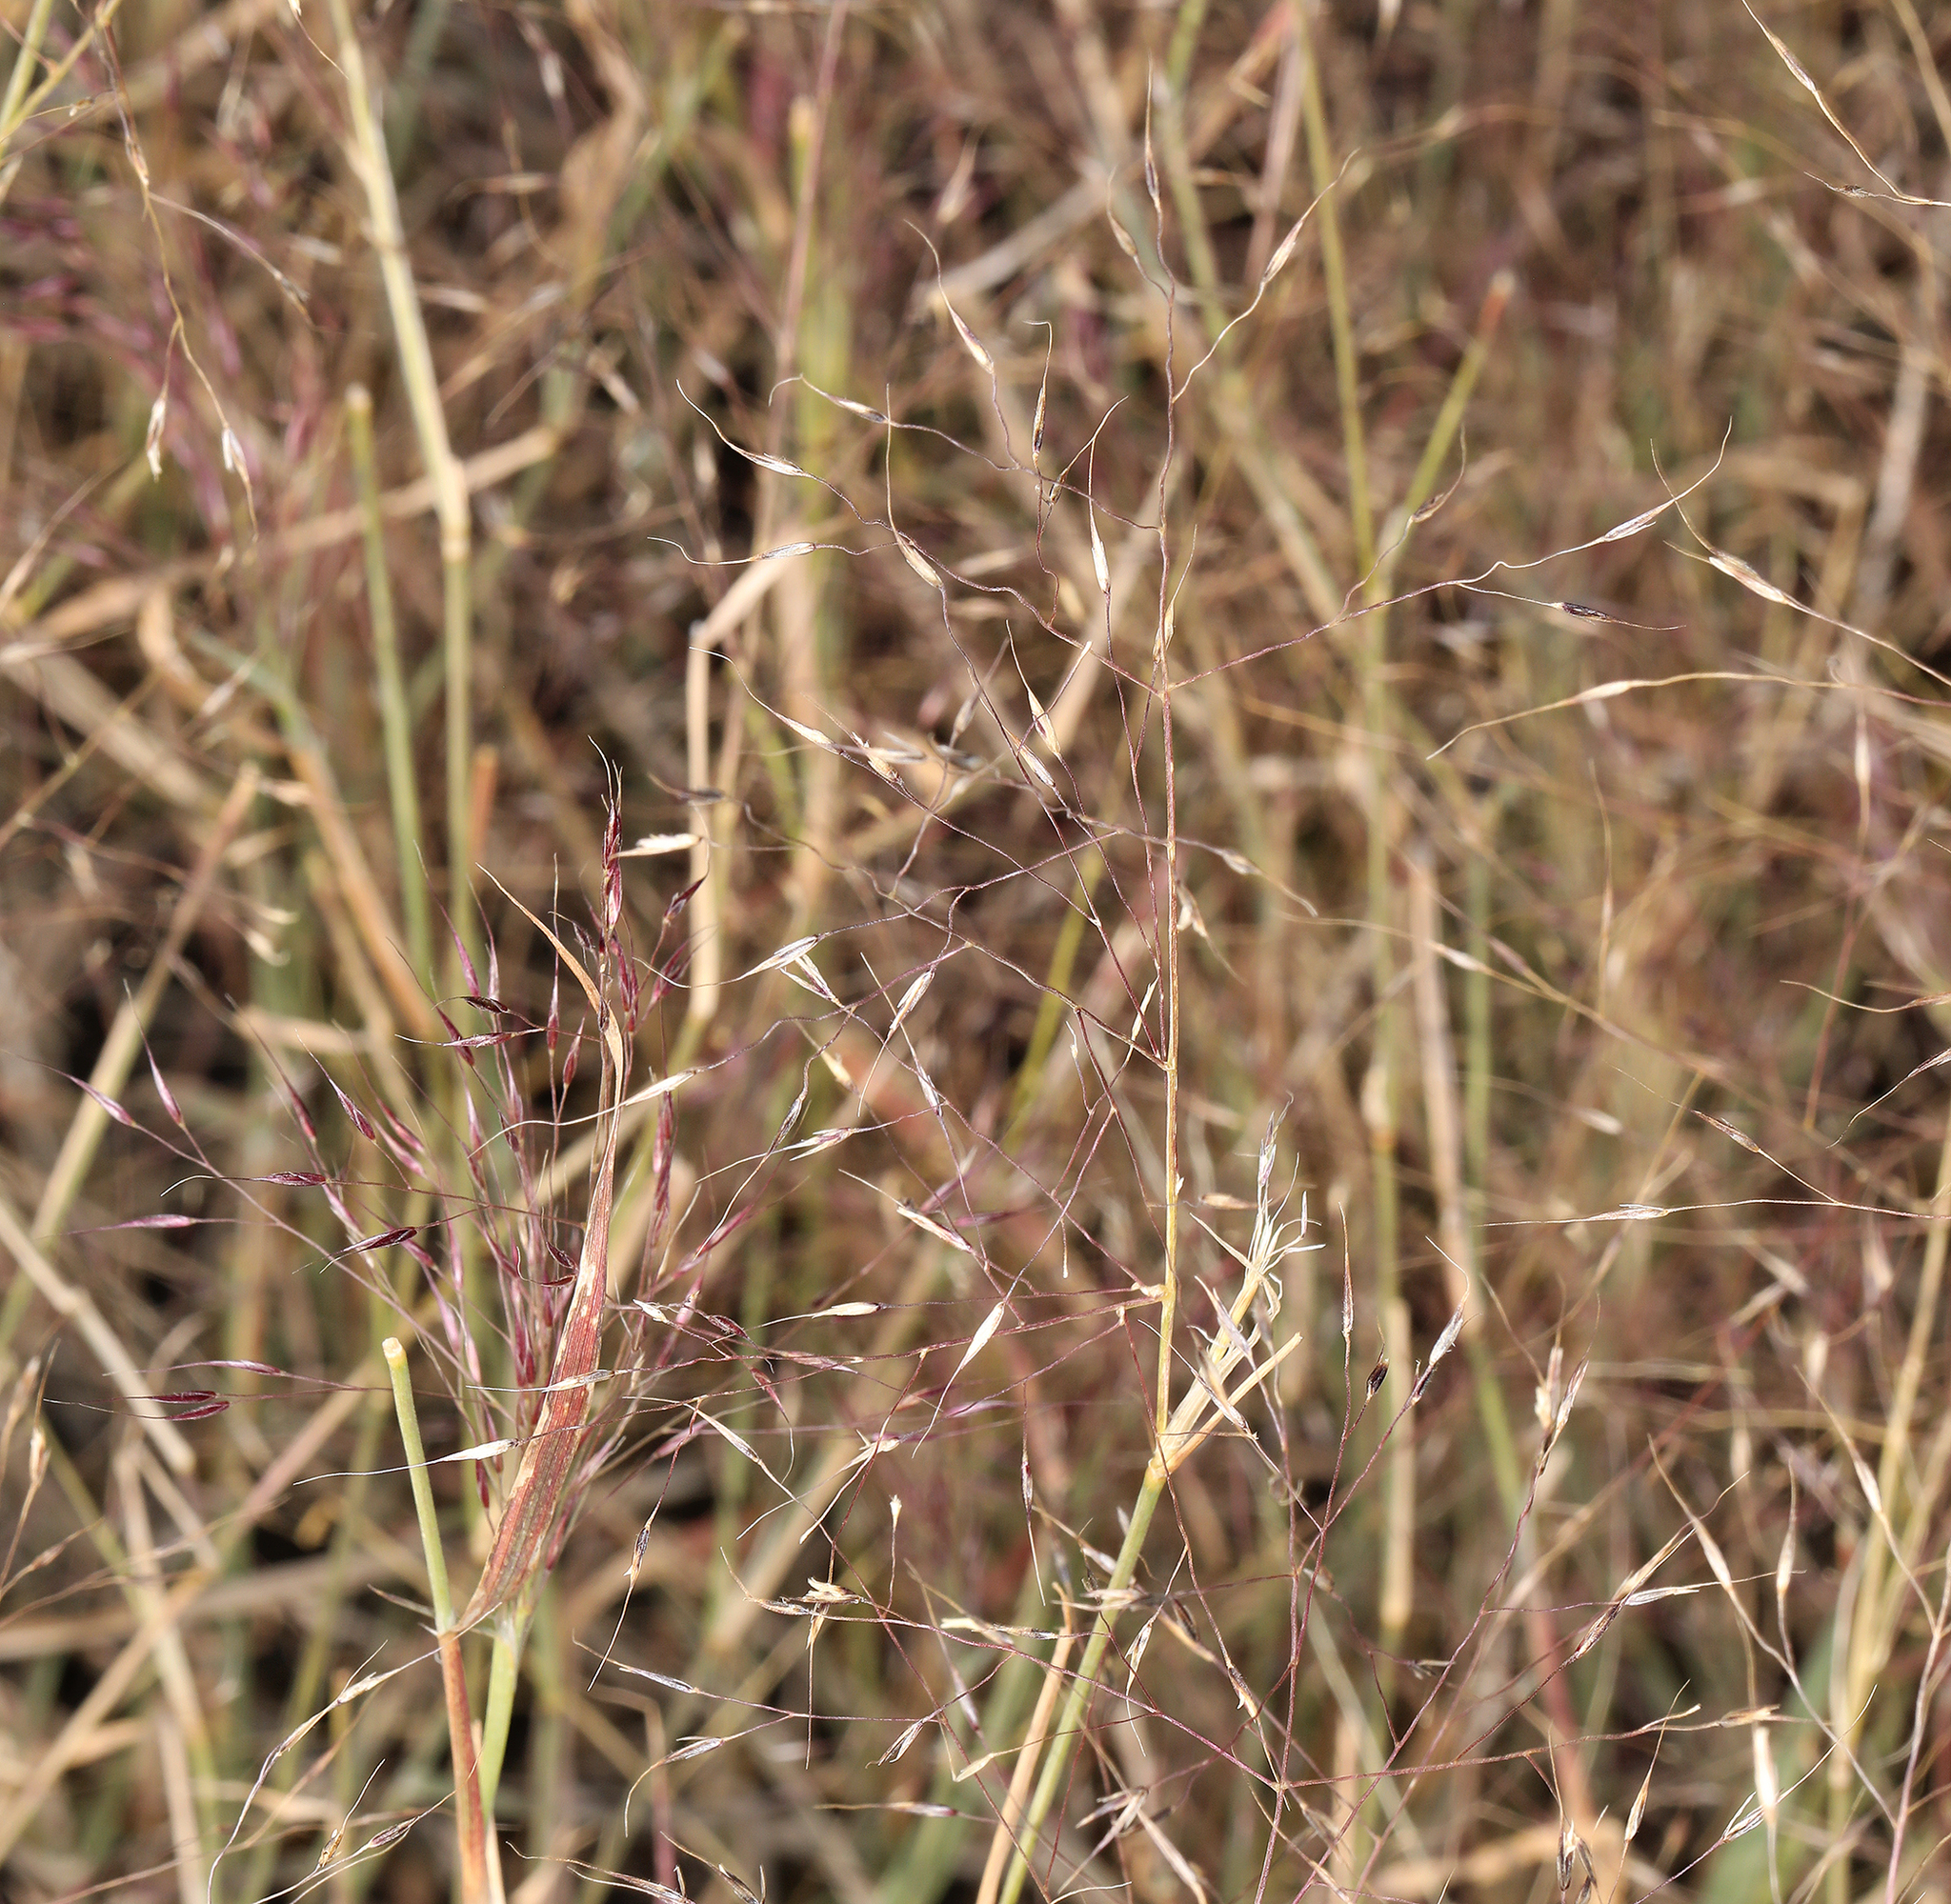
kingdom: Plantae
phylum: Tracheophyta
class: Liliopsida
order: Poales
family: Poaceae
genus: Muhlenbergia
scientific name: Muhlenbergia porteri
